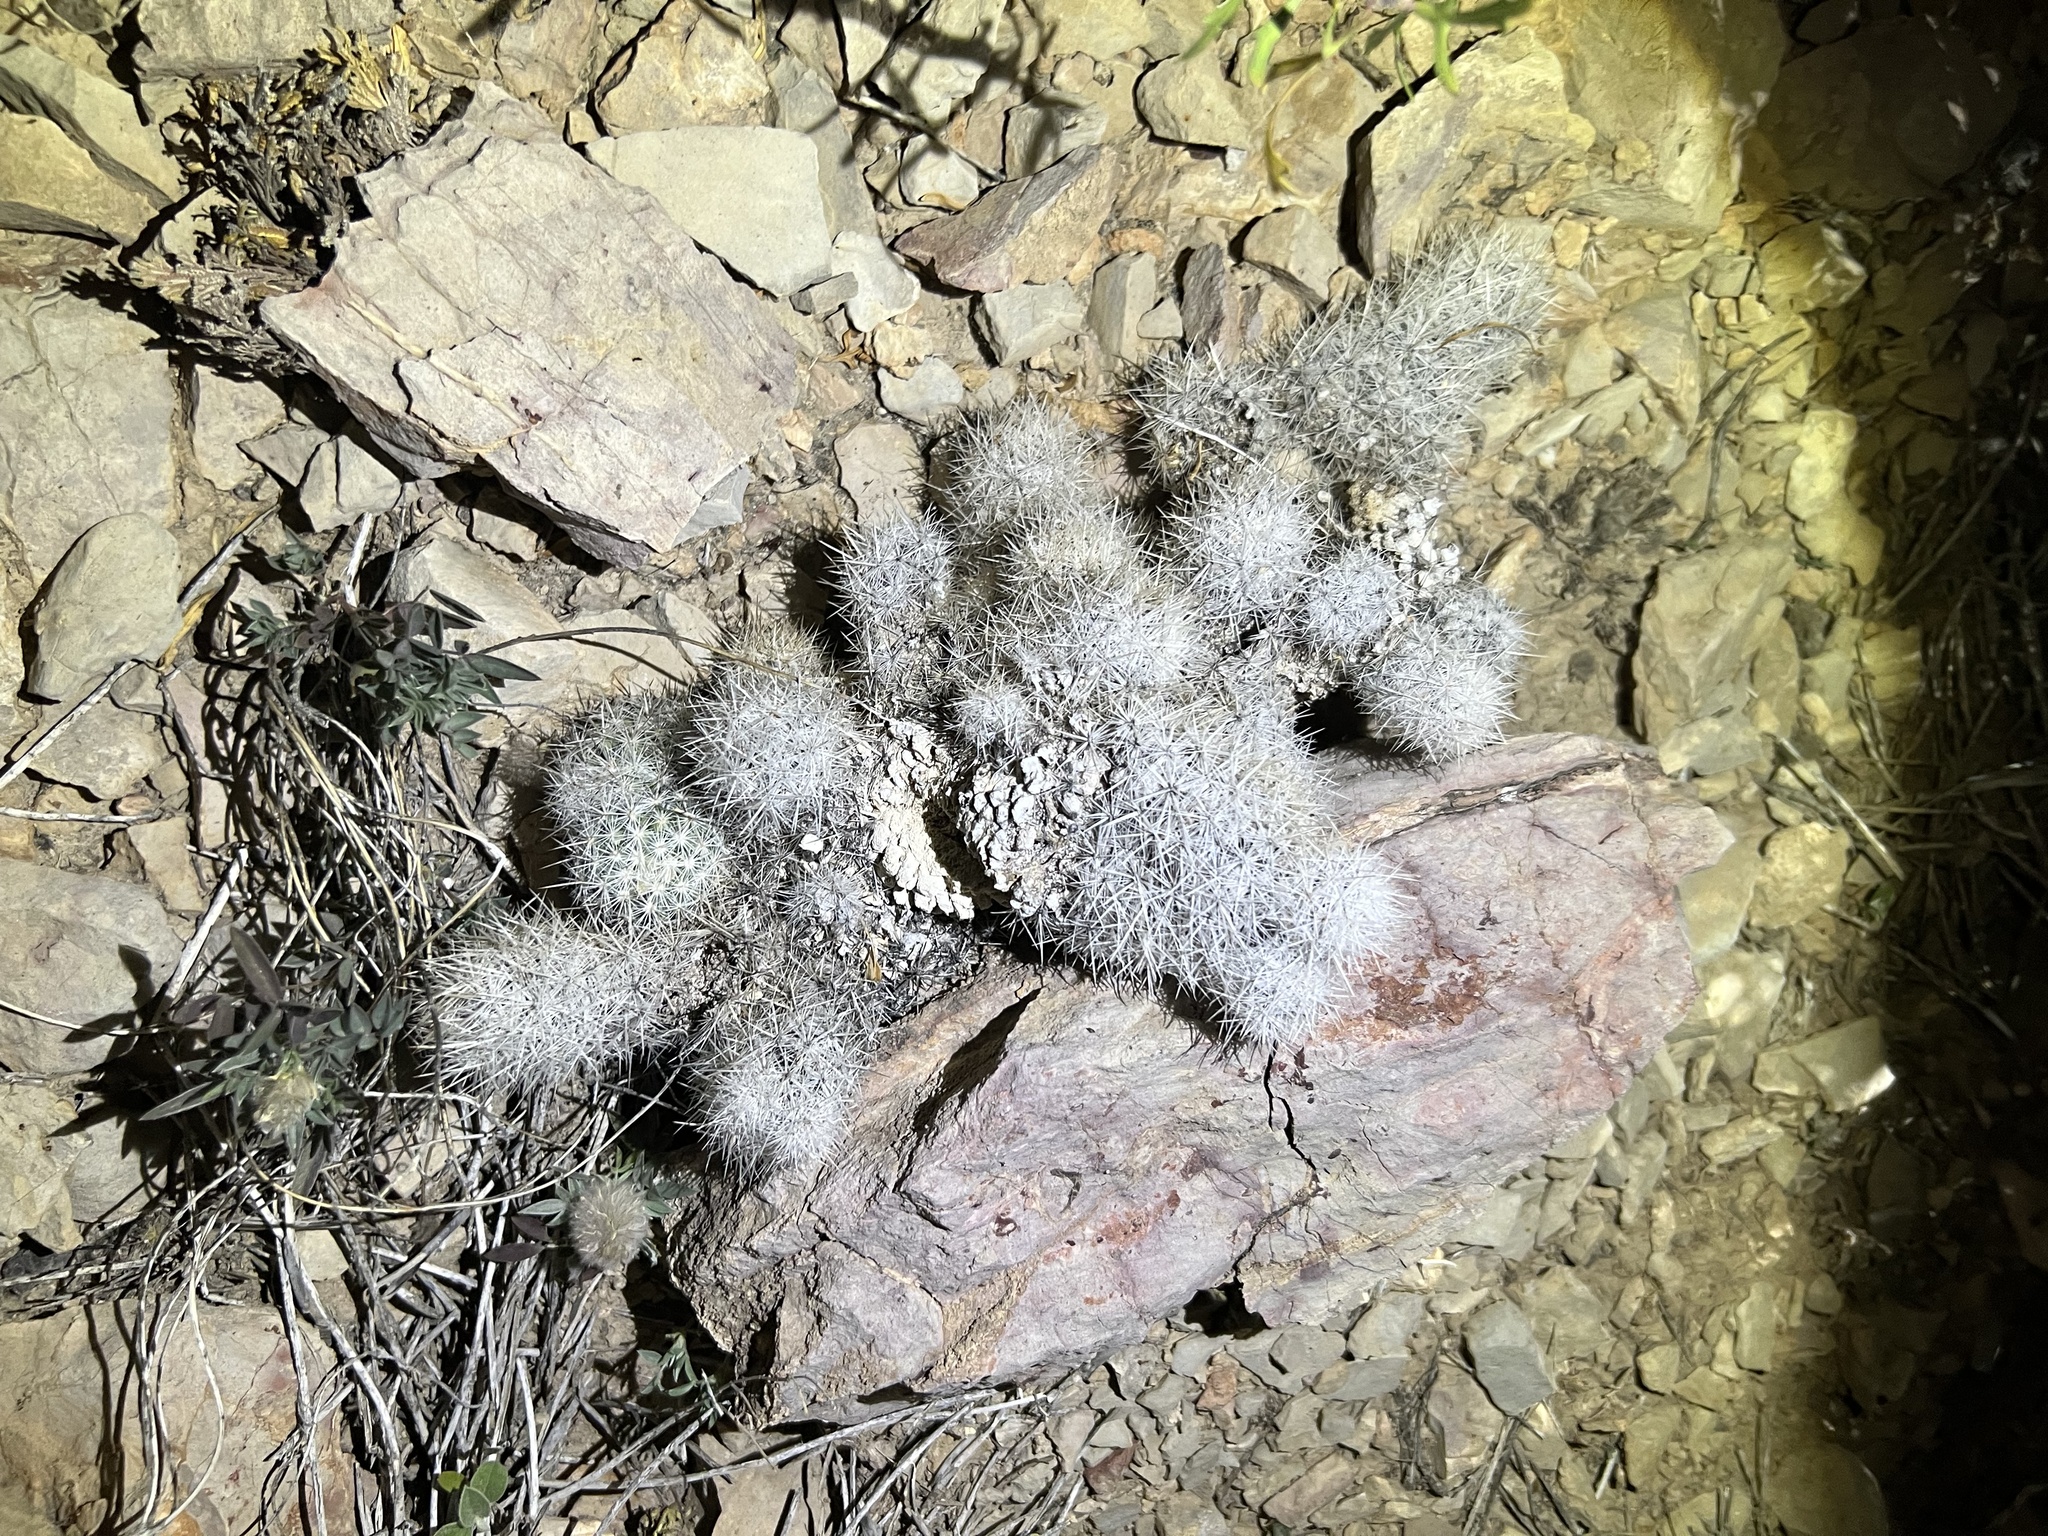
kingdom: Plantae
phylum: Tracheophyta
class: Magnoliopsida
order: Caryophyllales
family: Cactaceae
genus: Pelecyphora
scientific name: Pelecyphora tuberculosa
